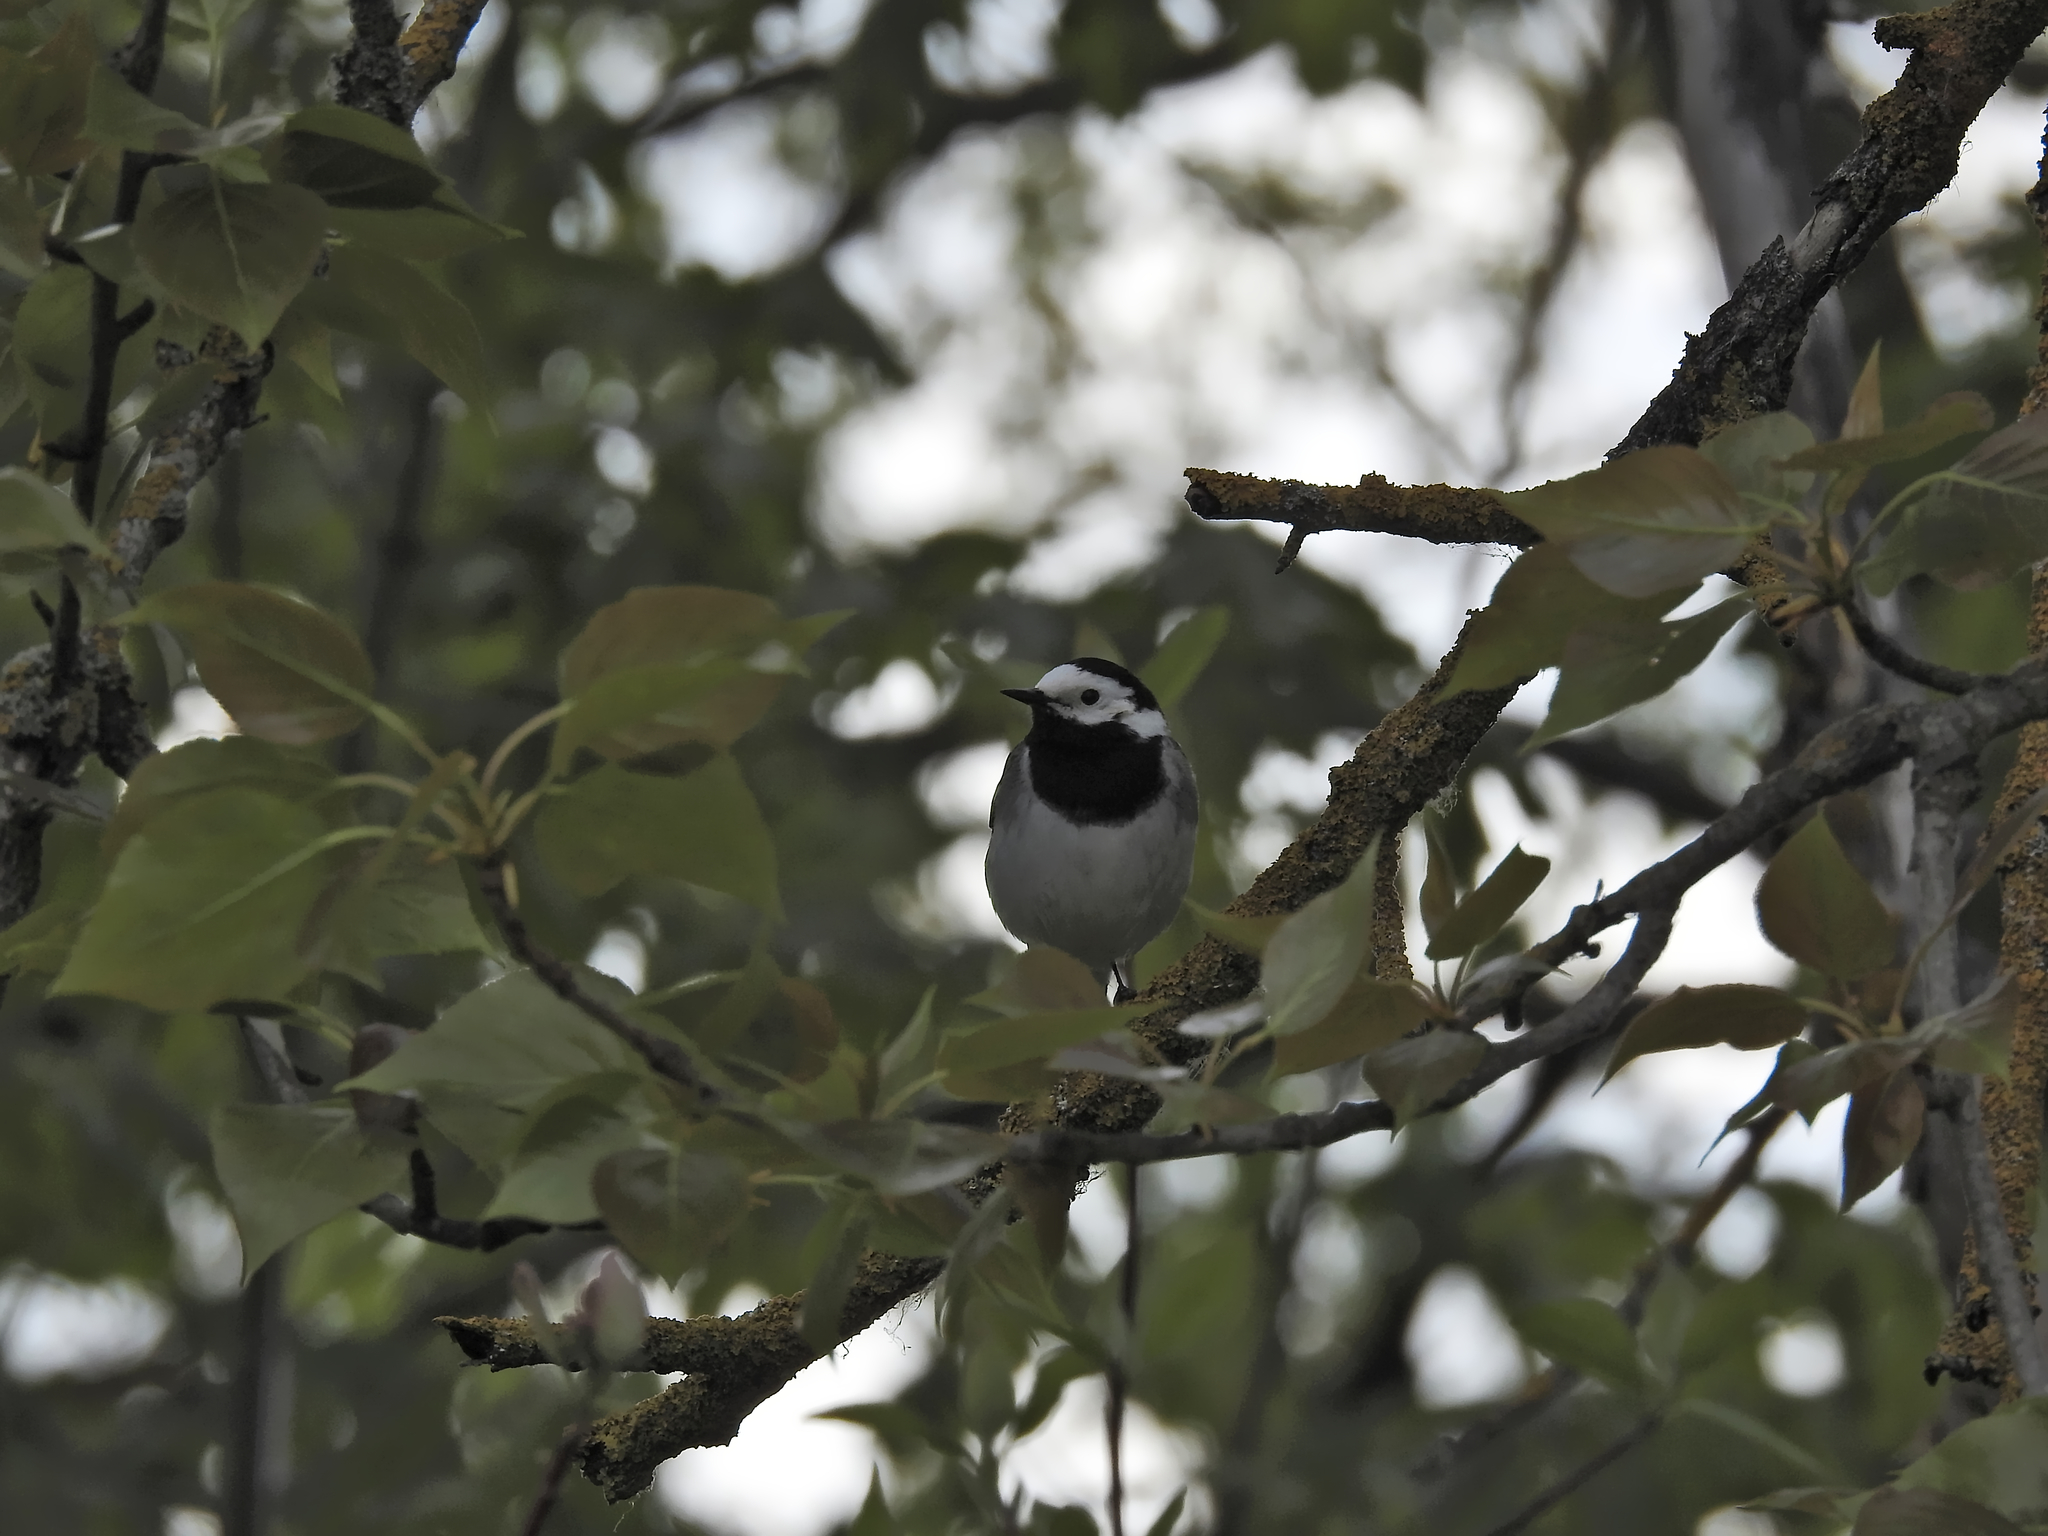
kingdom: Animalia
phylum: Chordata
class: Aves
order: Passeriformes
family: Motacillidae
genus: Motacilla
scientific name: Motacilla alba
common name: White wagtail
